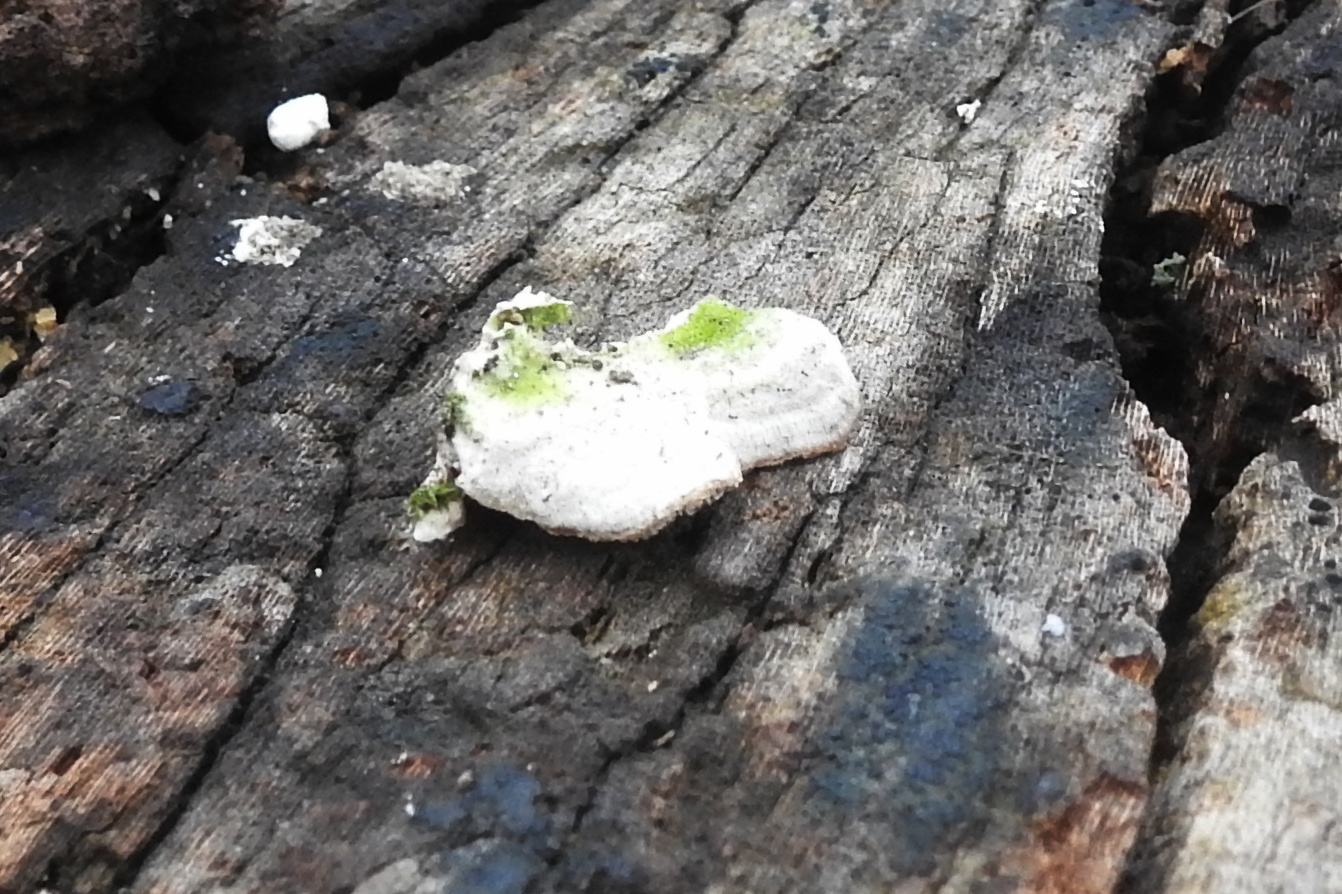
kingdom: Fungi
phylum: Basidiomycota
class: Agaricomycetes
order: Hymenochaetales
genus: Trichaptum
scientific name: Trichaptum biforme
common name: Violet-toothed polypore
